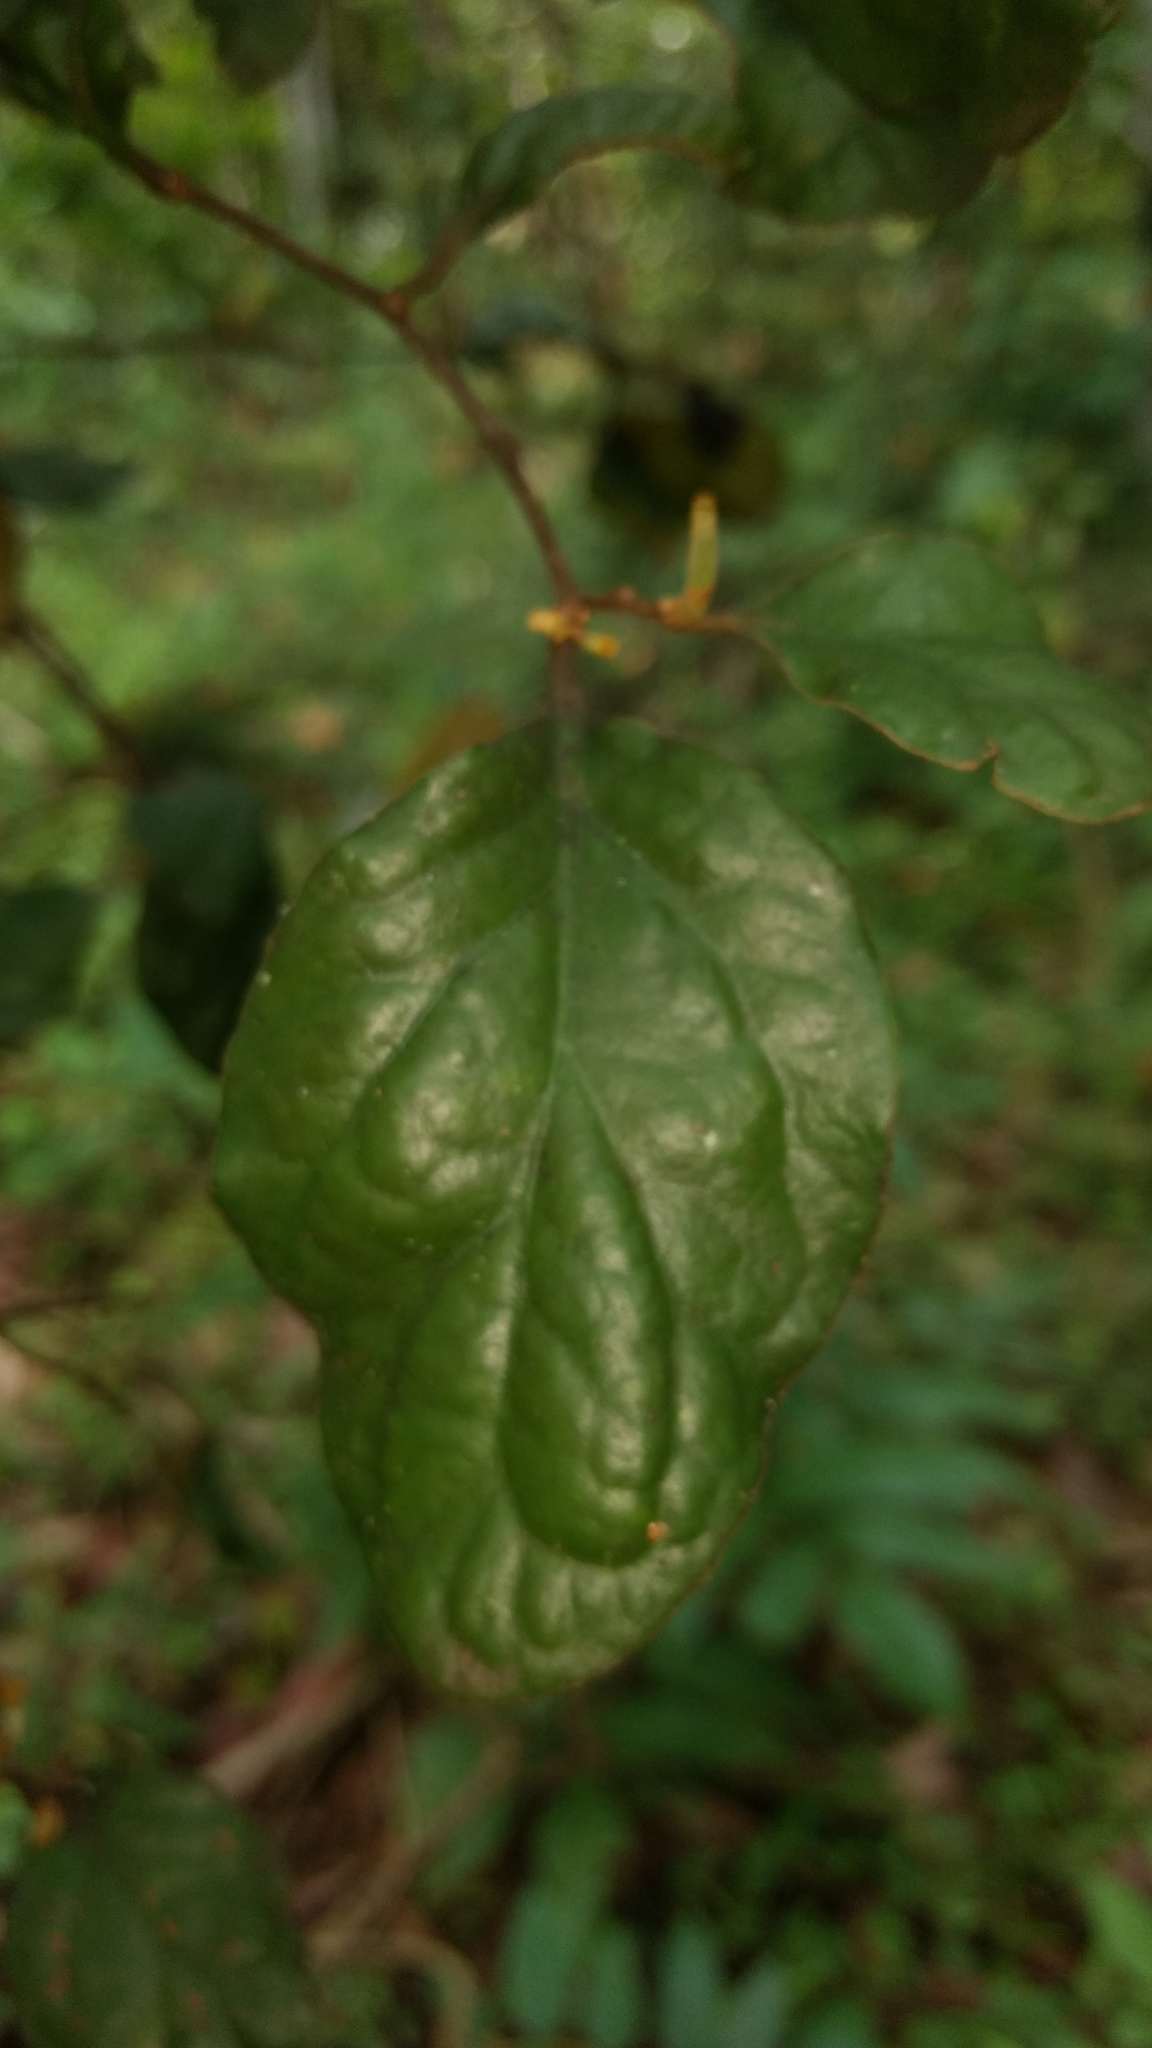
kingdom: Plantae
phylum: Tracheophyta
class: Magnoliopsida
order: Santalales
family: Loranthaceae
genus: Taxillus
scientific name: Taxillus tomentosus
